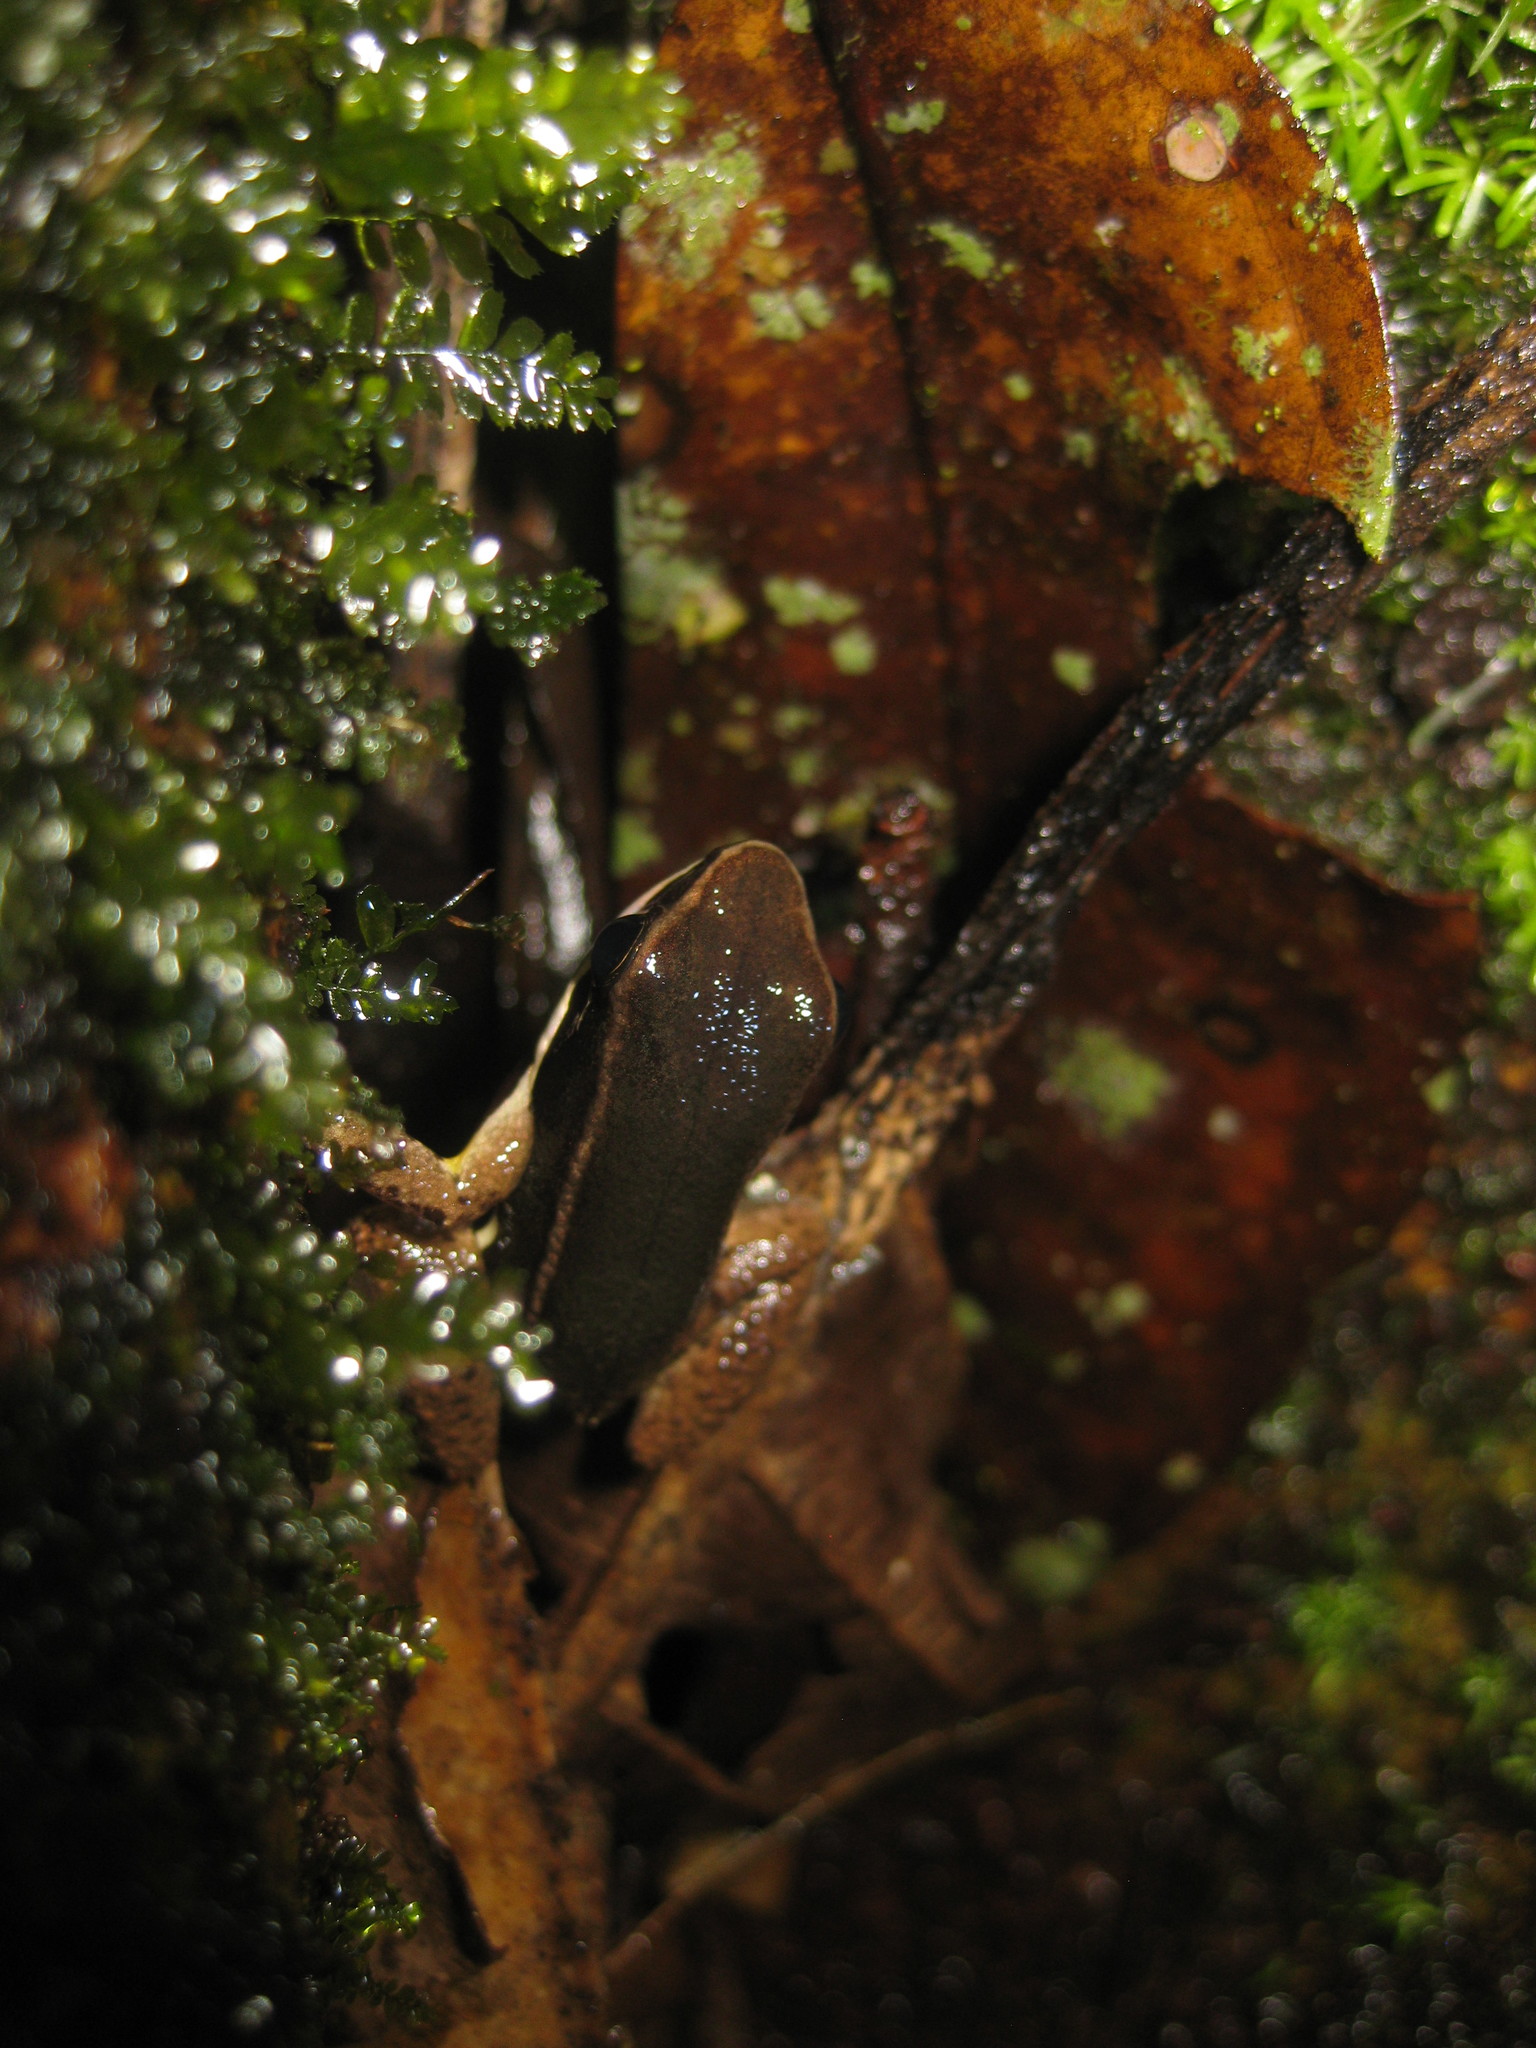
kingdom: Animalia
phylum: Chordata
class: Amphibia
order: Anura
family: Aromobatidae
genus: Allobates
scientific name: Allobates femoralis
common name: Brilliant-thighed poison frog
